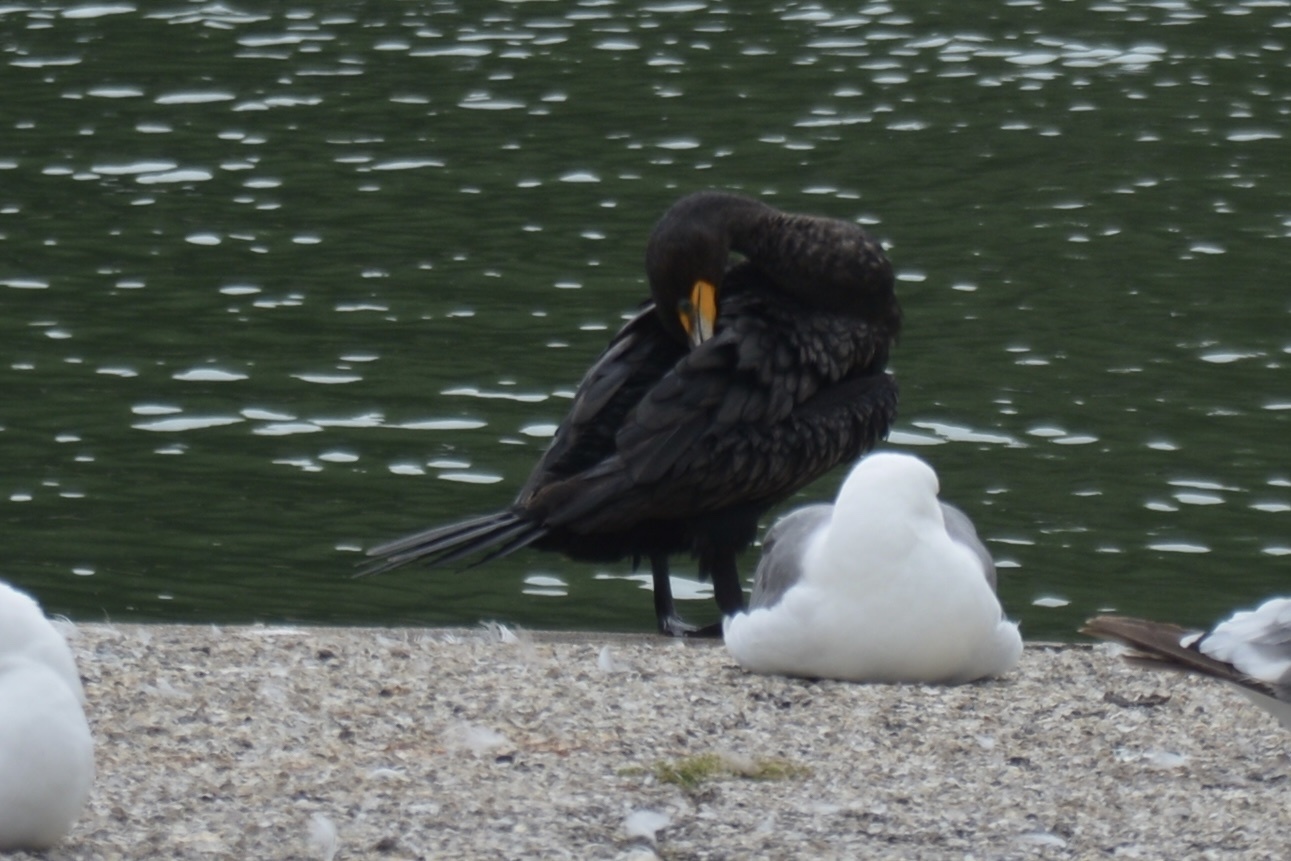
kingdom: Animalia
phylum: Chordata
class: Aves
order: Suliformes
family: Phalacrocoracidae
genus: Phalacrocorax
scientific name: Phalacrocorax auritus
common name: Double-crested cormorant
